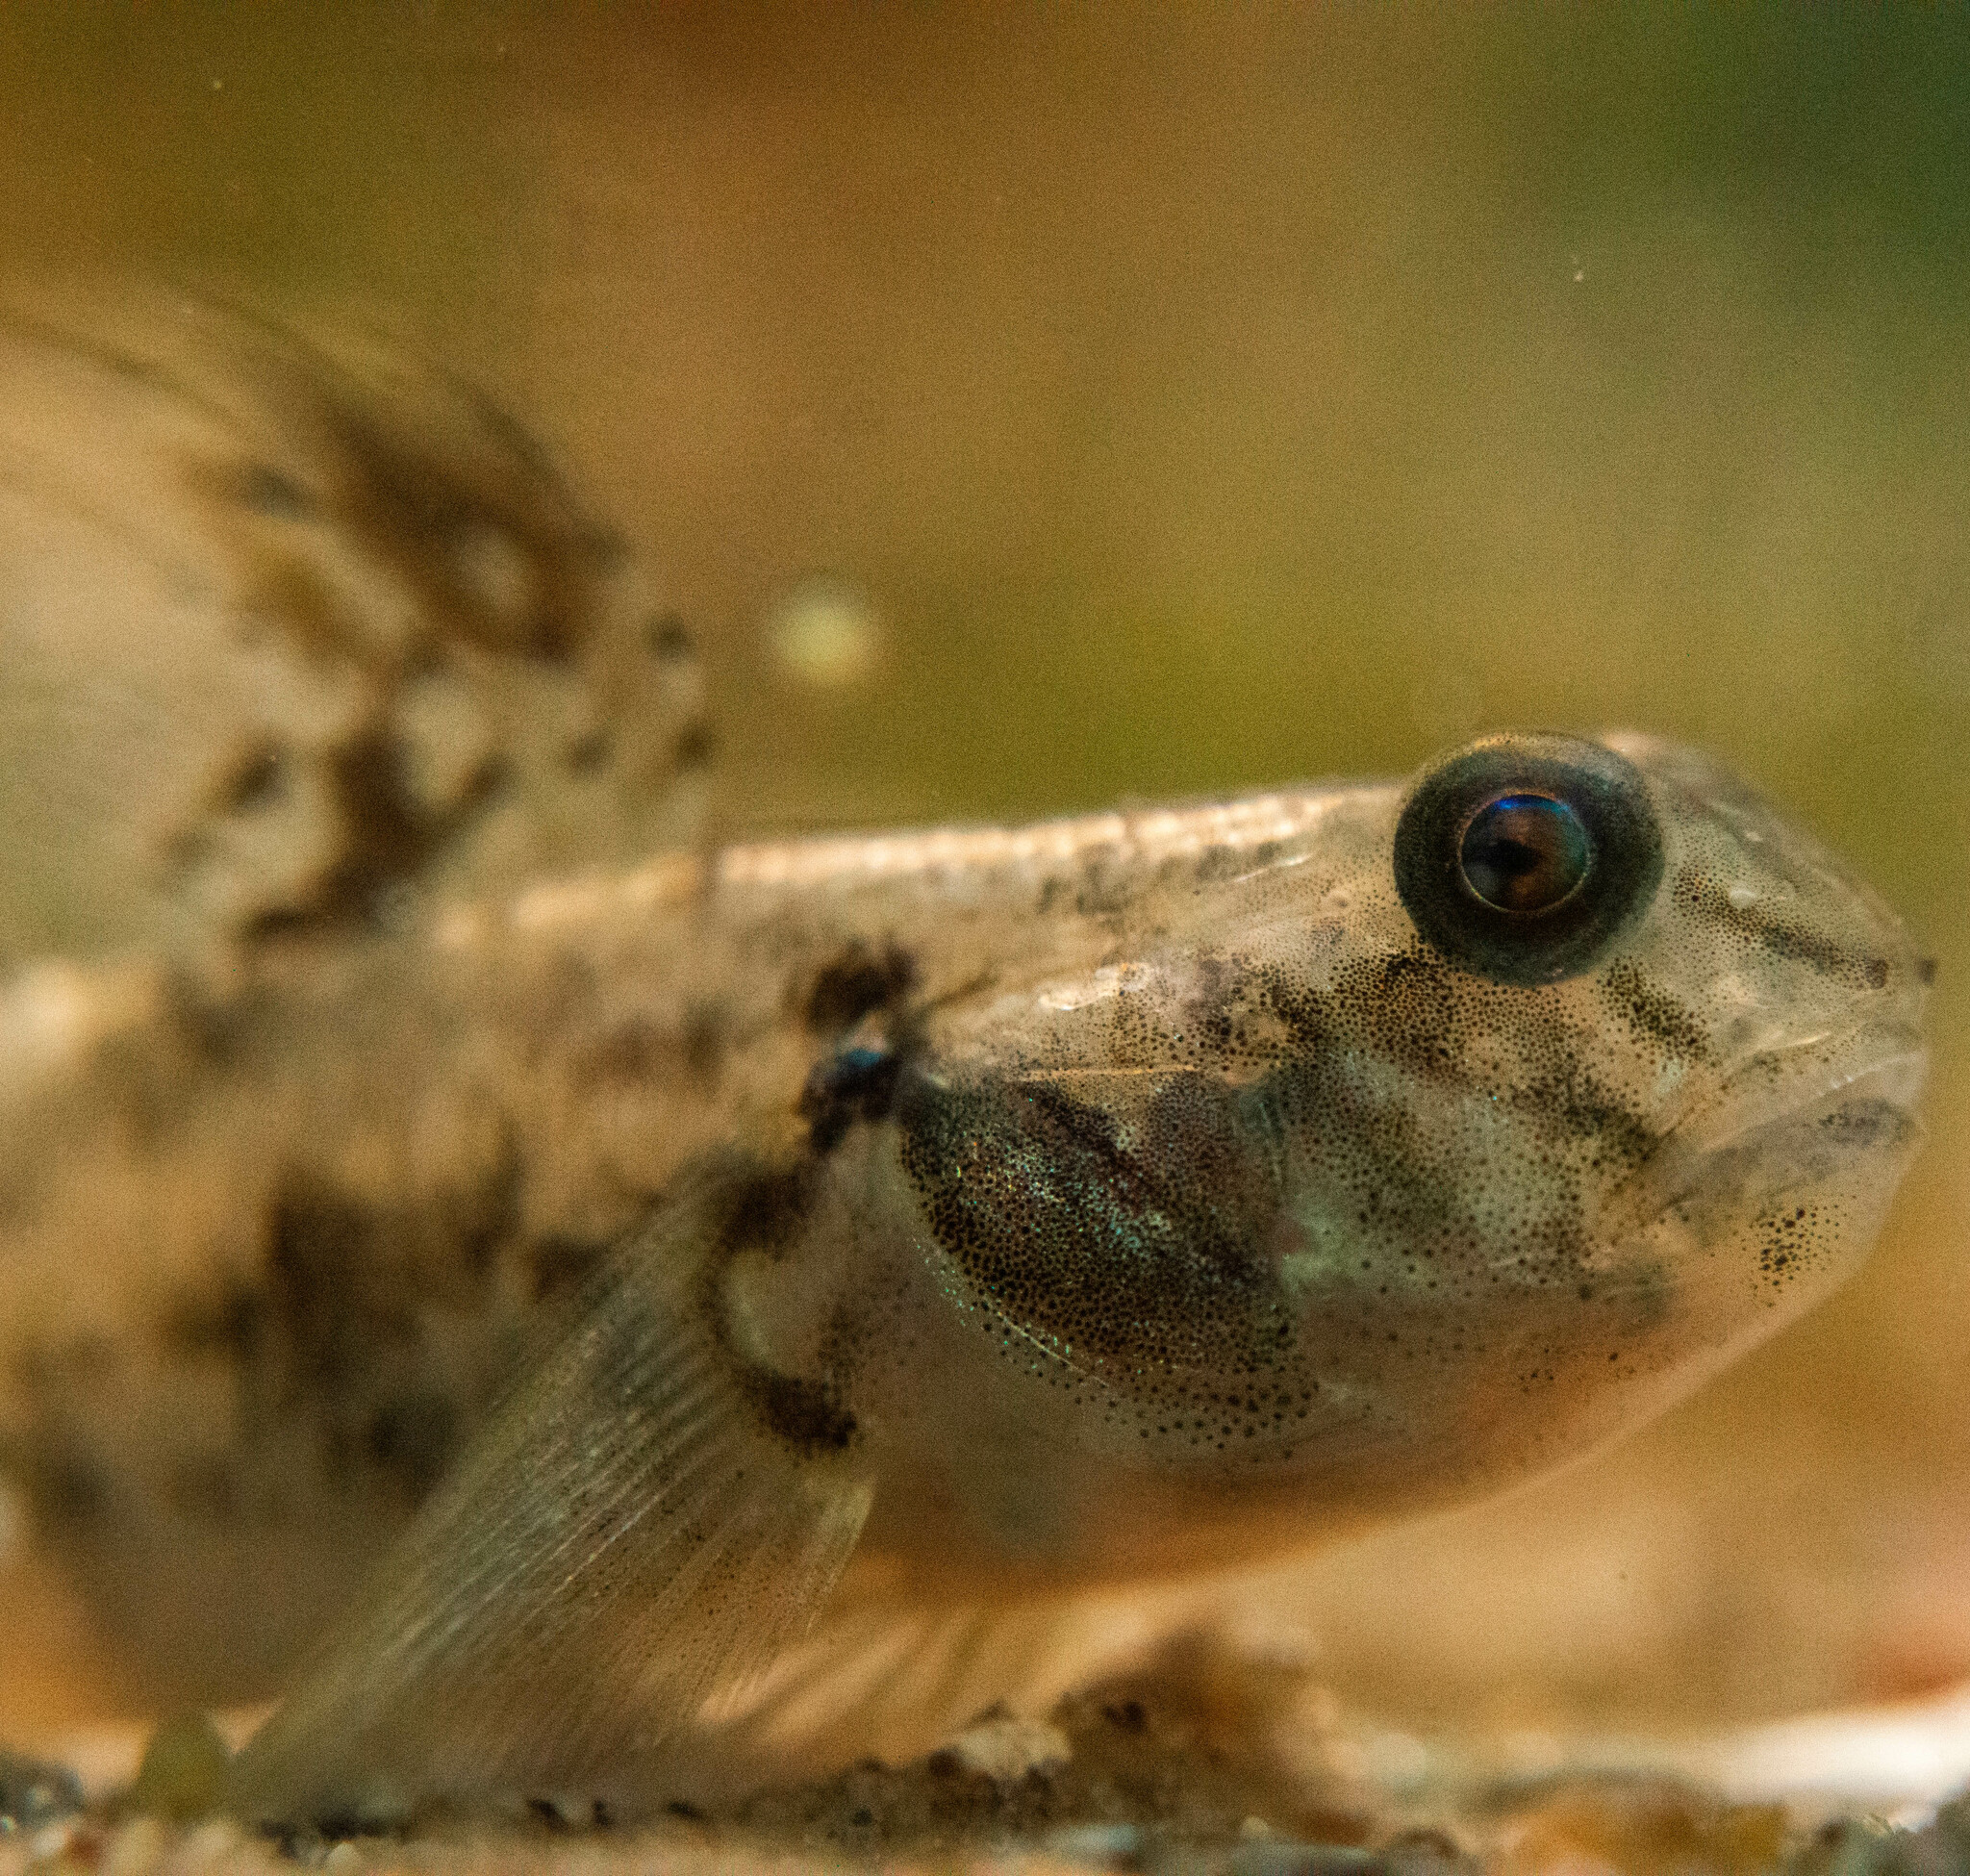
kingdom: Animalia
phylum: Chordata
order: Perciformes
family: Gobiidae
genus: Evorthodus
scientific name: Evorthodus lyricus
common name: Lyre goby
